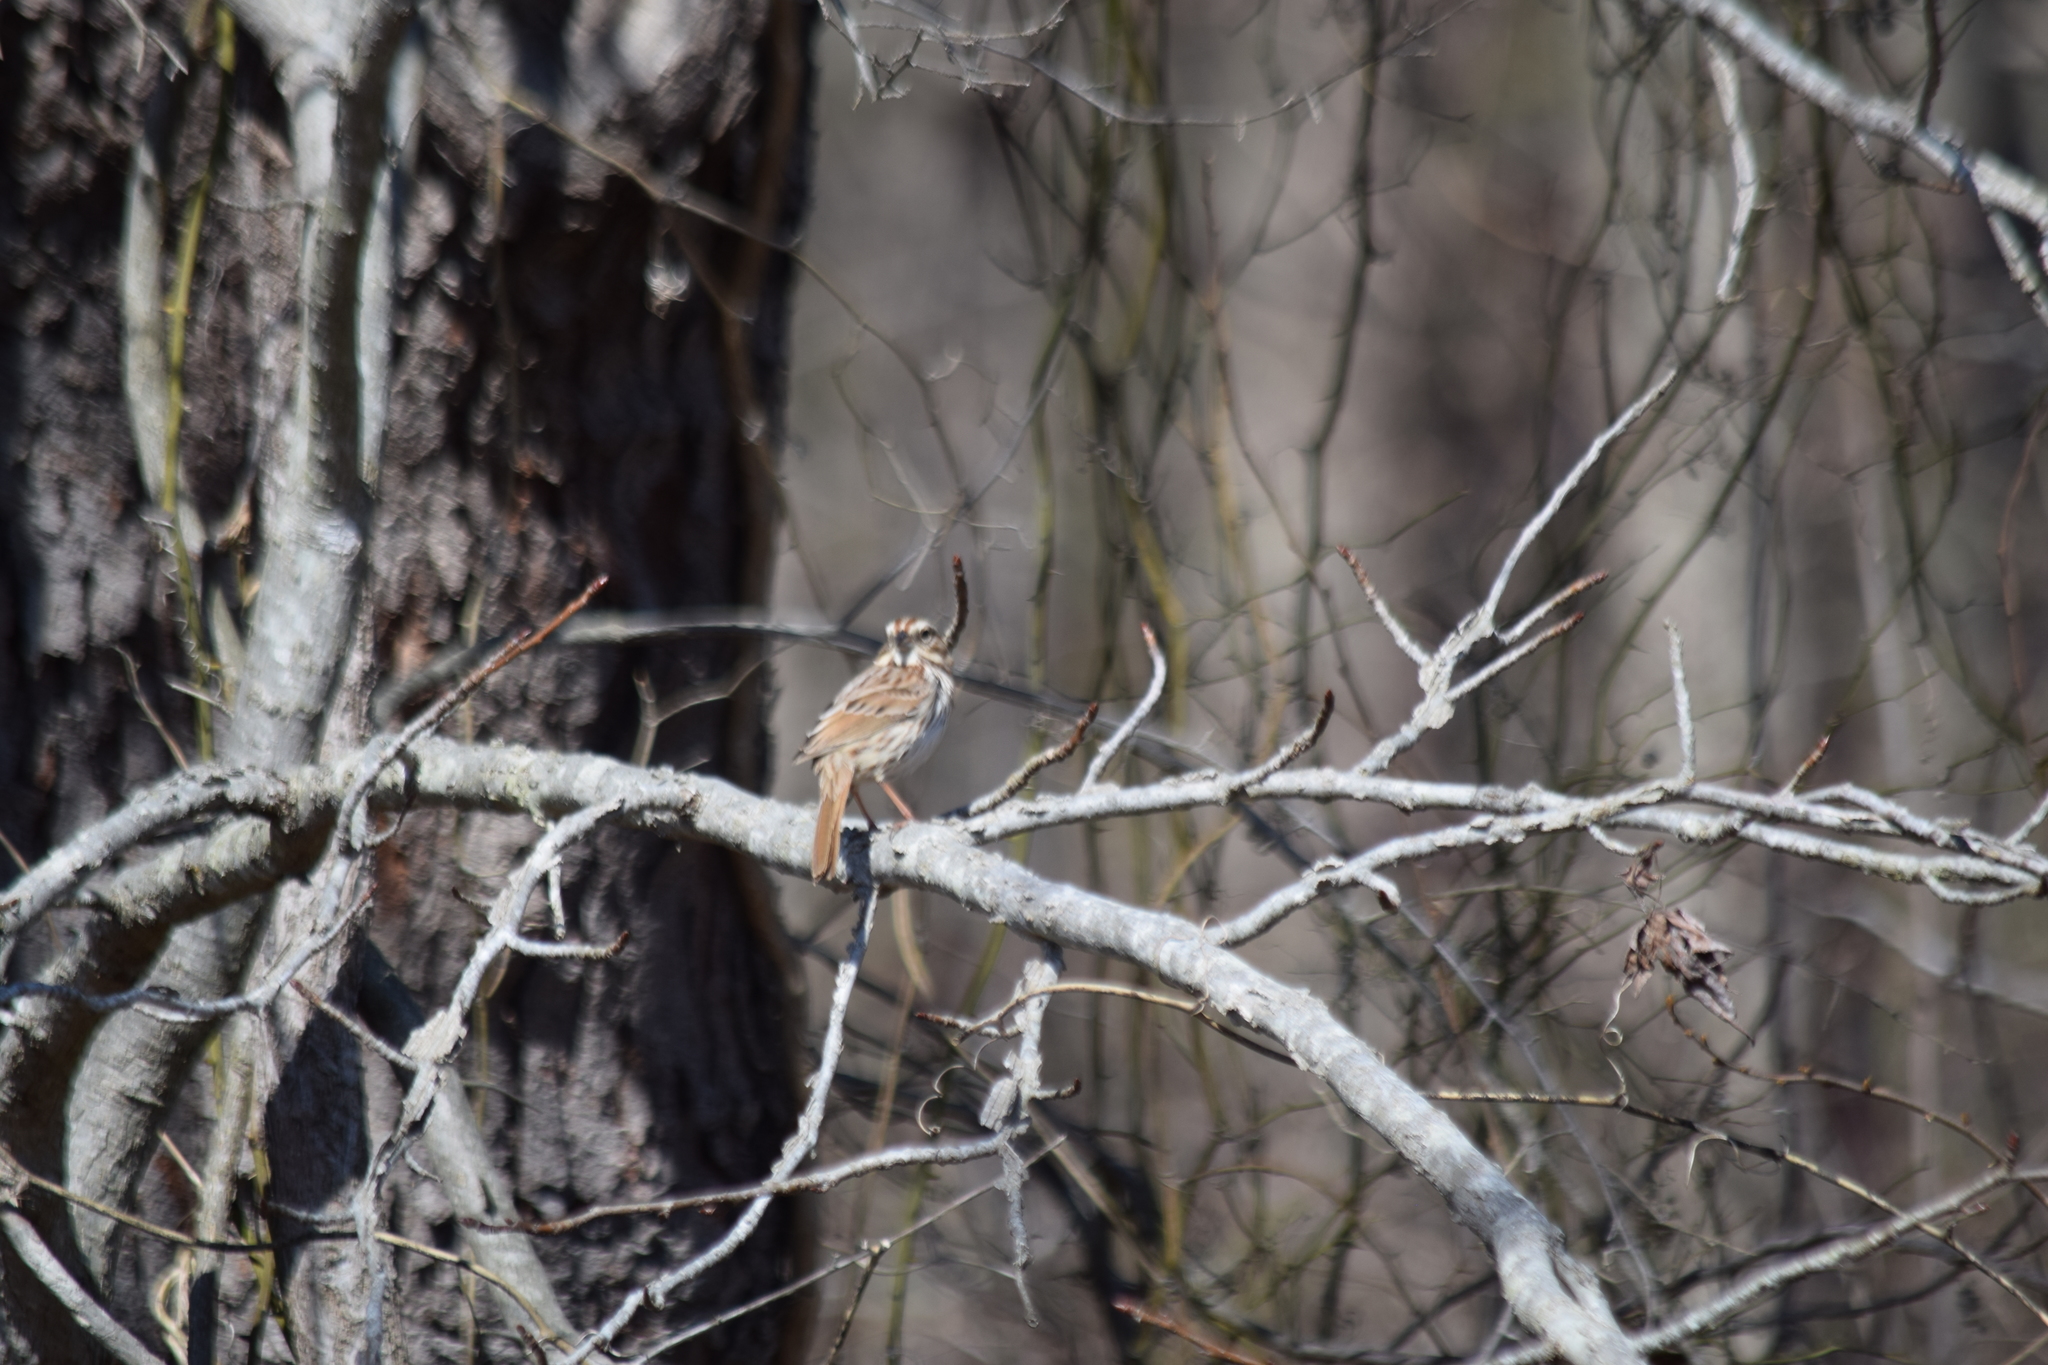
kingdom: Animalia
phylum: Chordata
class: Aves
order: Passeriformes
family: Passerellidae
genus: Melospiza
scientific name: Melospiza melodia
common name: Song sparrow
